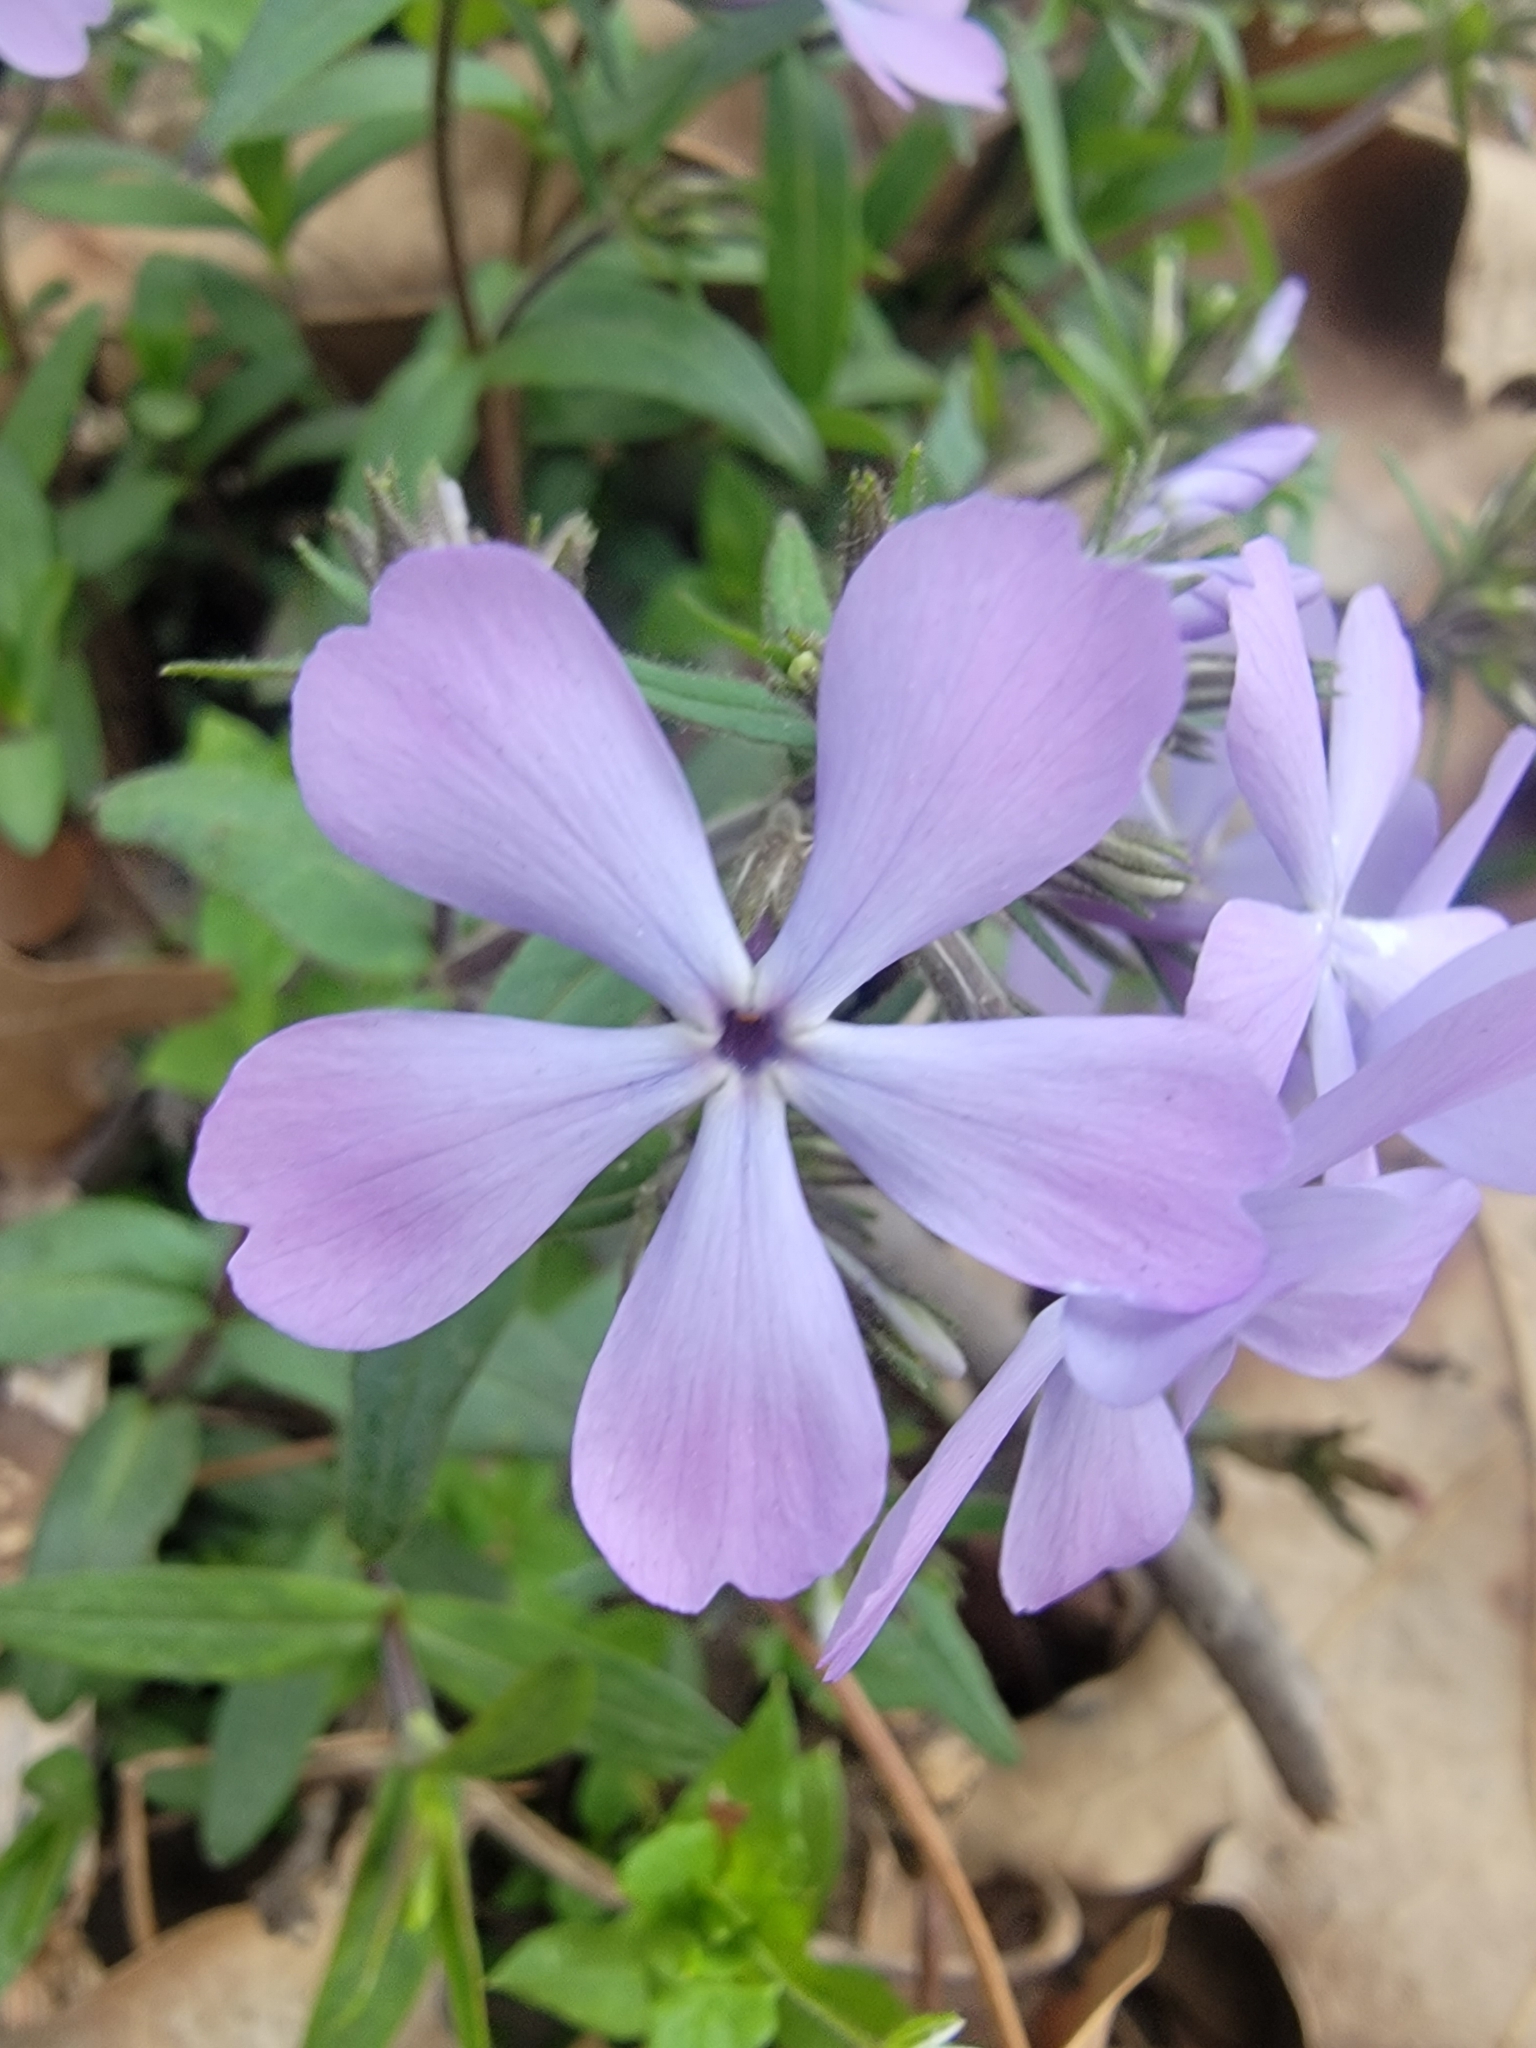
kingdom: Plantae
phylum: Tracheophyta
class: Magnoliopsida
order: Ericales
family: Polemoniaceae
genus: Phlox
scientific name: Phlox divaricata
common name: Blue phlox
